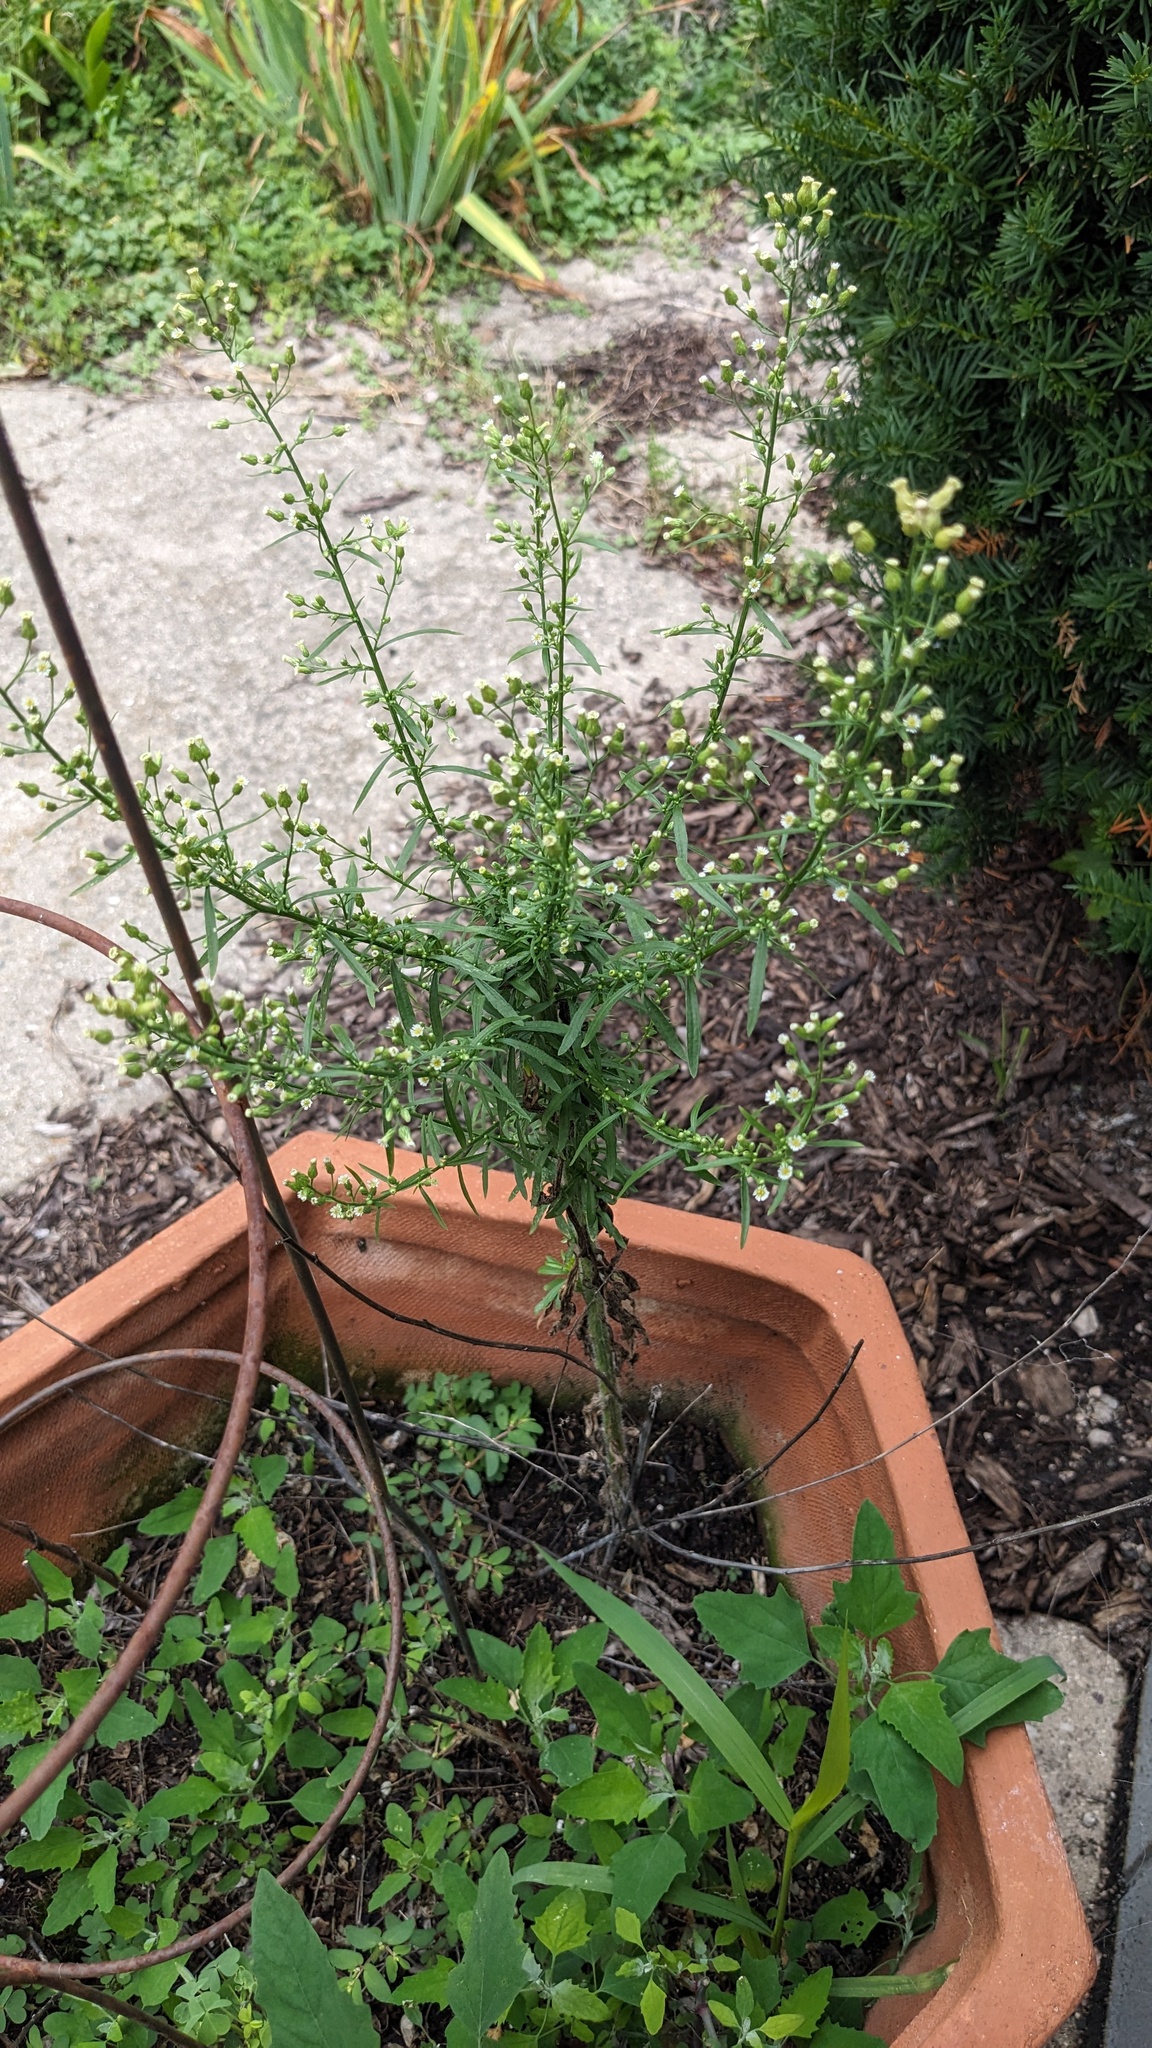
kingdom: Plantae
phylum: Tracheophyta
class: Magnoliopsida
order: Asterales
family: Asteraceae
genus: Erigeron
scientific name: Erigeron canadensis
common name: Canadian fleabane
